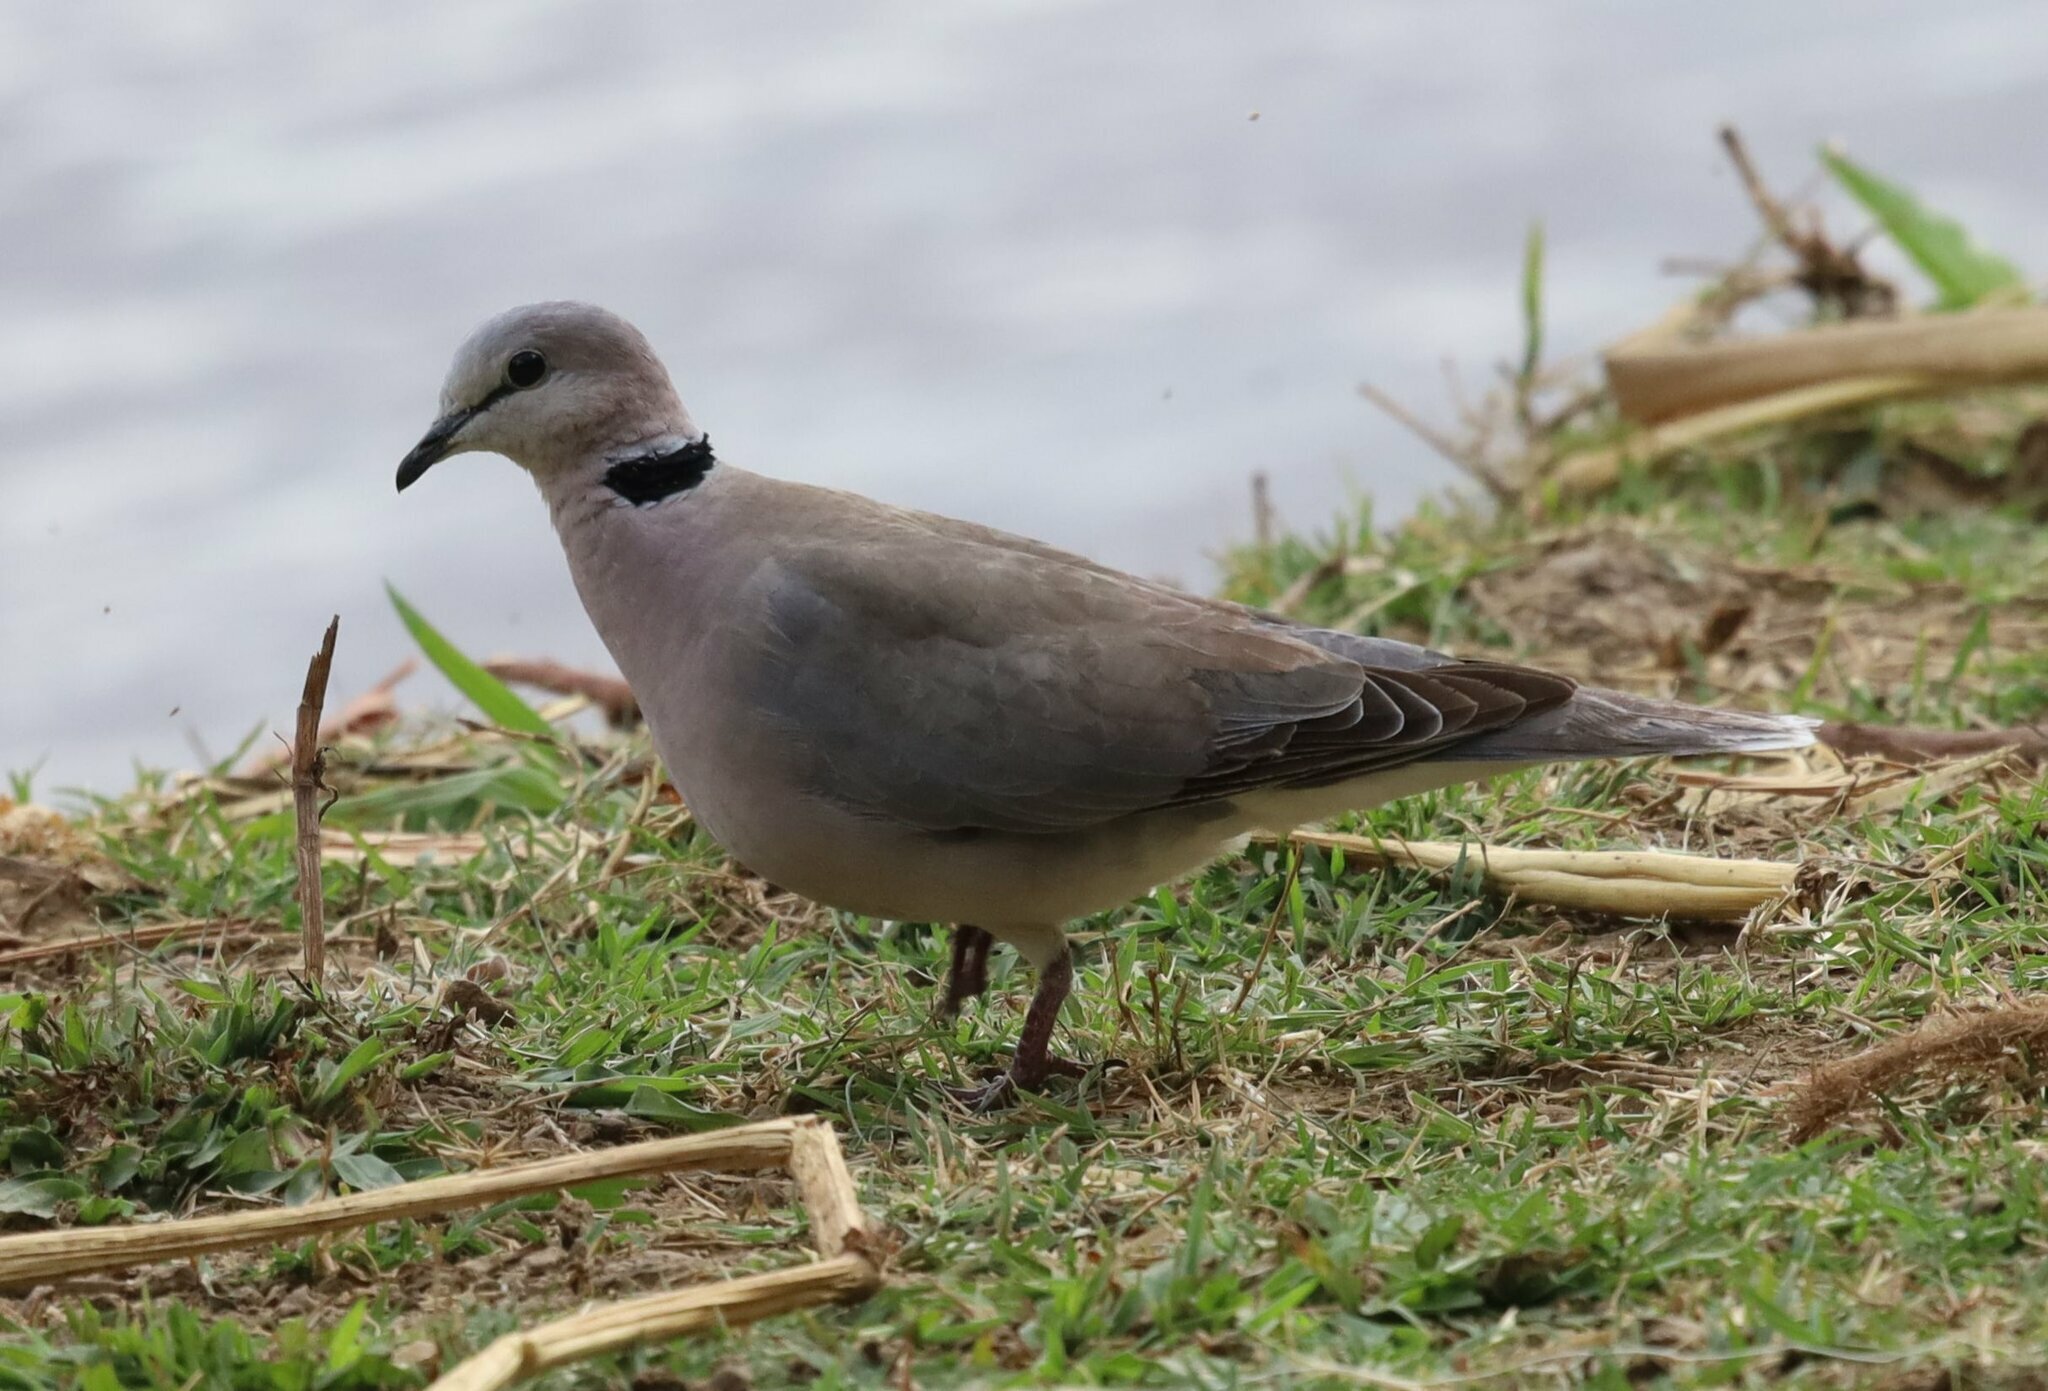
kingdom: Animalia
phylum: Chordata
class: Aves
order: Columbiformes
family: Columbidae
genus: Streptopelia
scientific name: Streptopelia capicola
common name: Ring-necked dove
